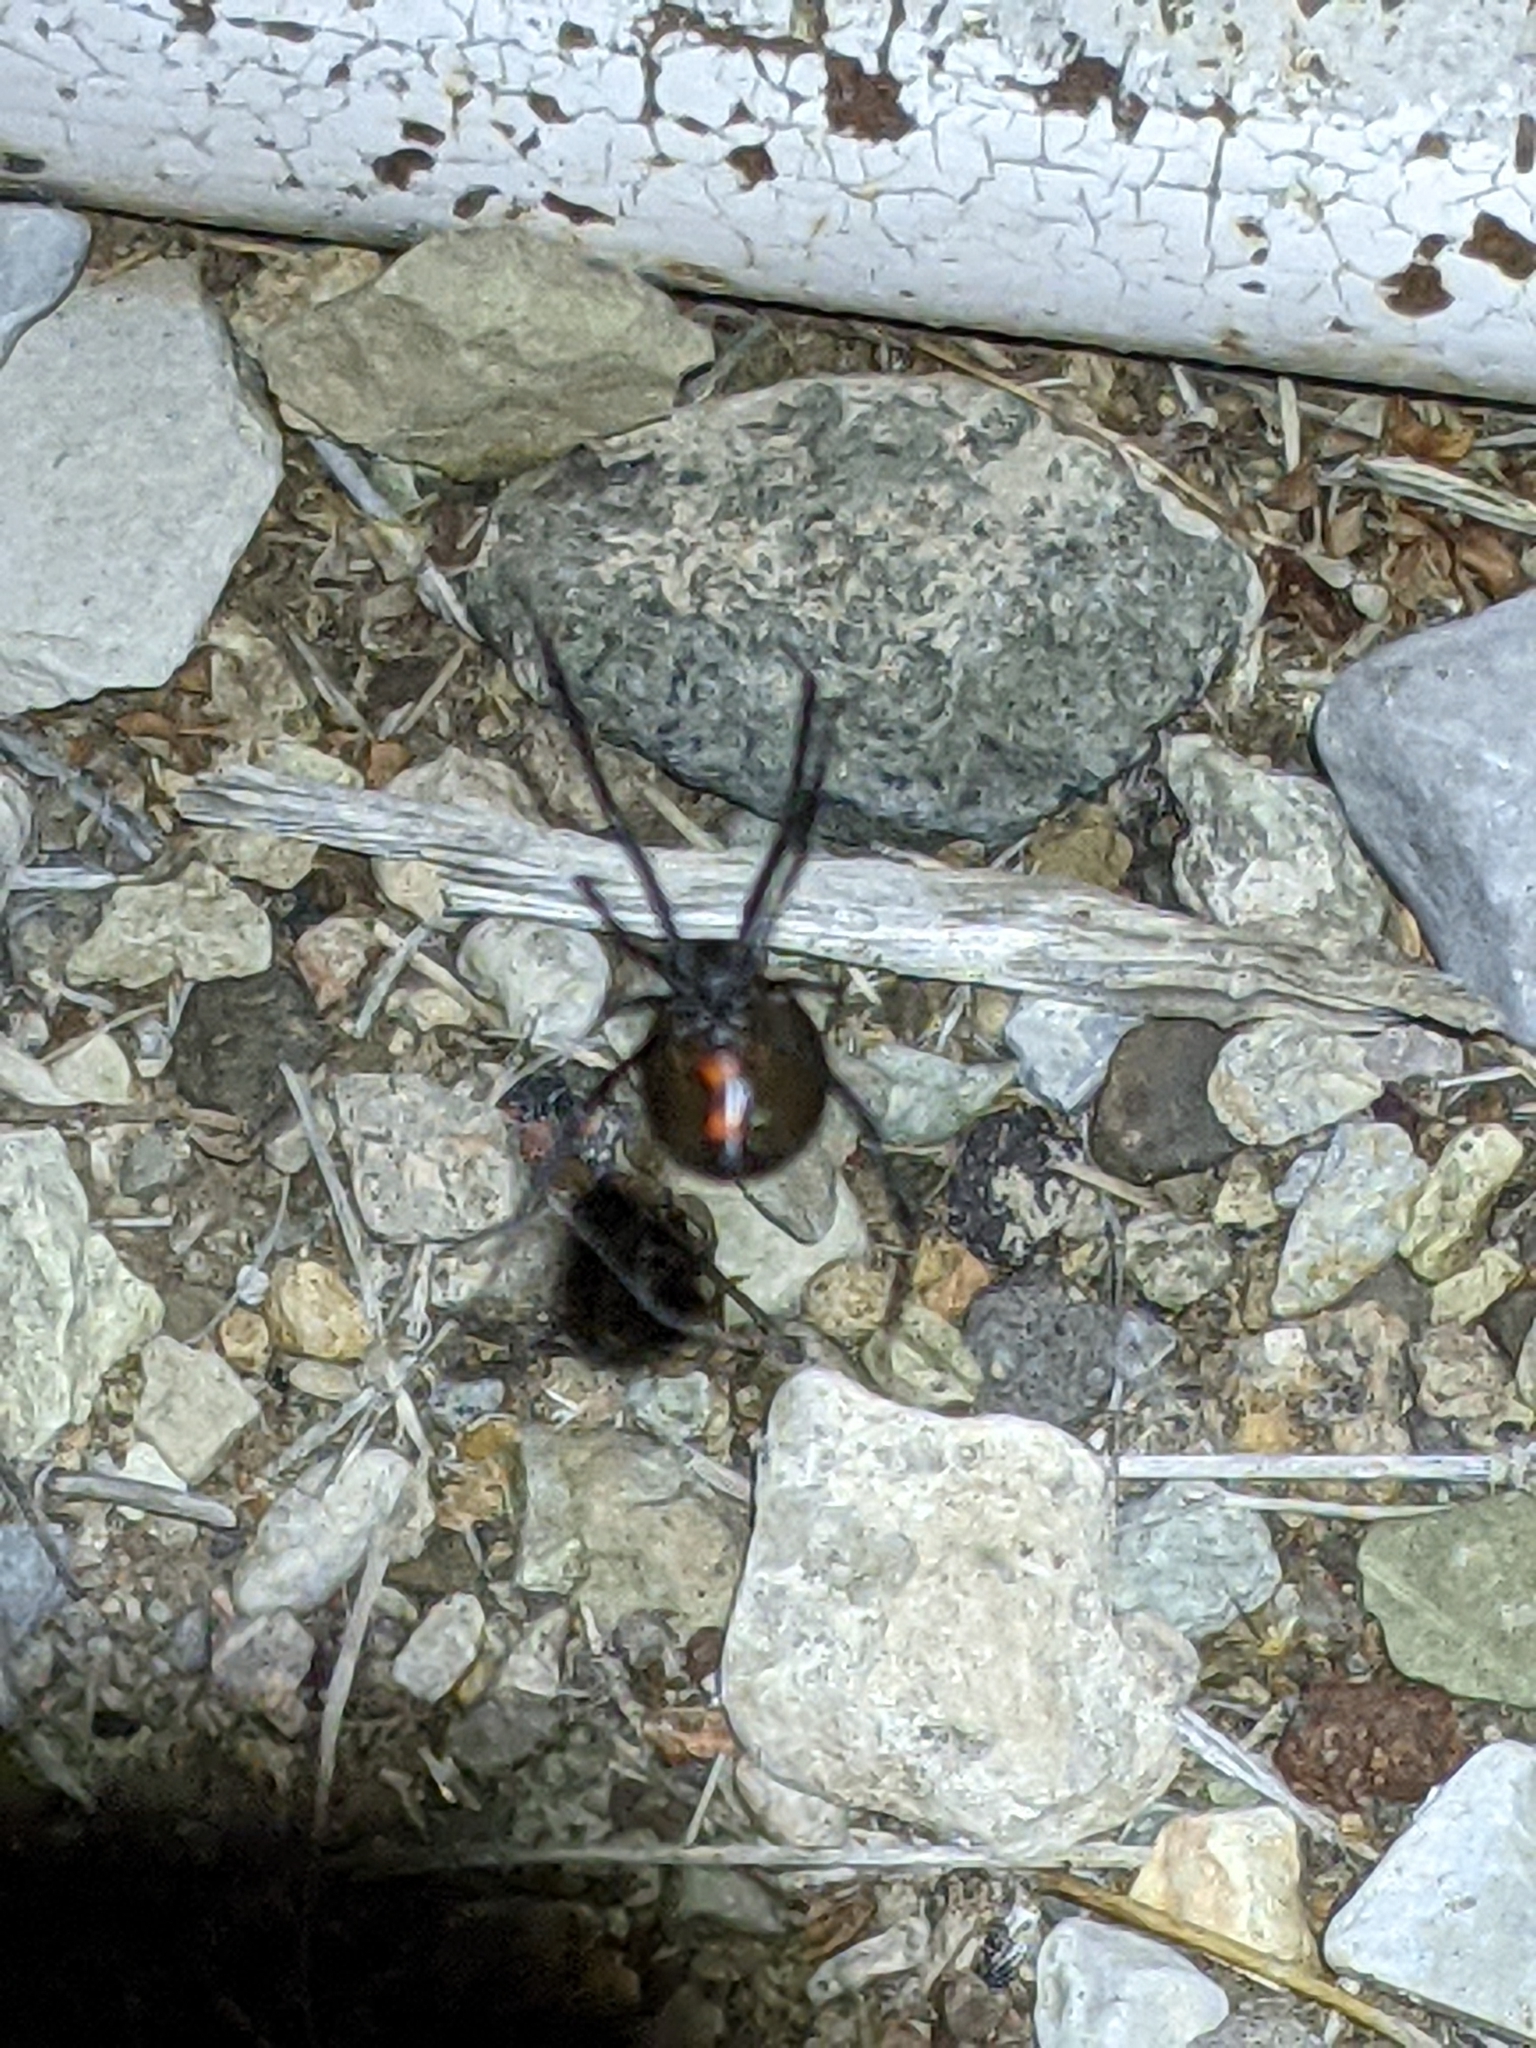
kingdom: Animalia
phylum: Arthropoda
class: Arachnida
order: Araneae
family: Theridiidae
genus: Latrodectus
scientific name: Latrodectus hesperus
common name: Western black widow
